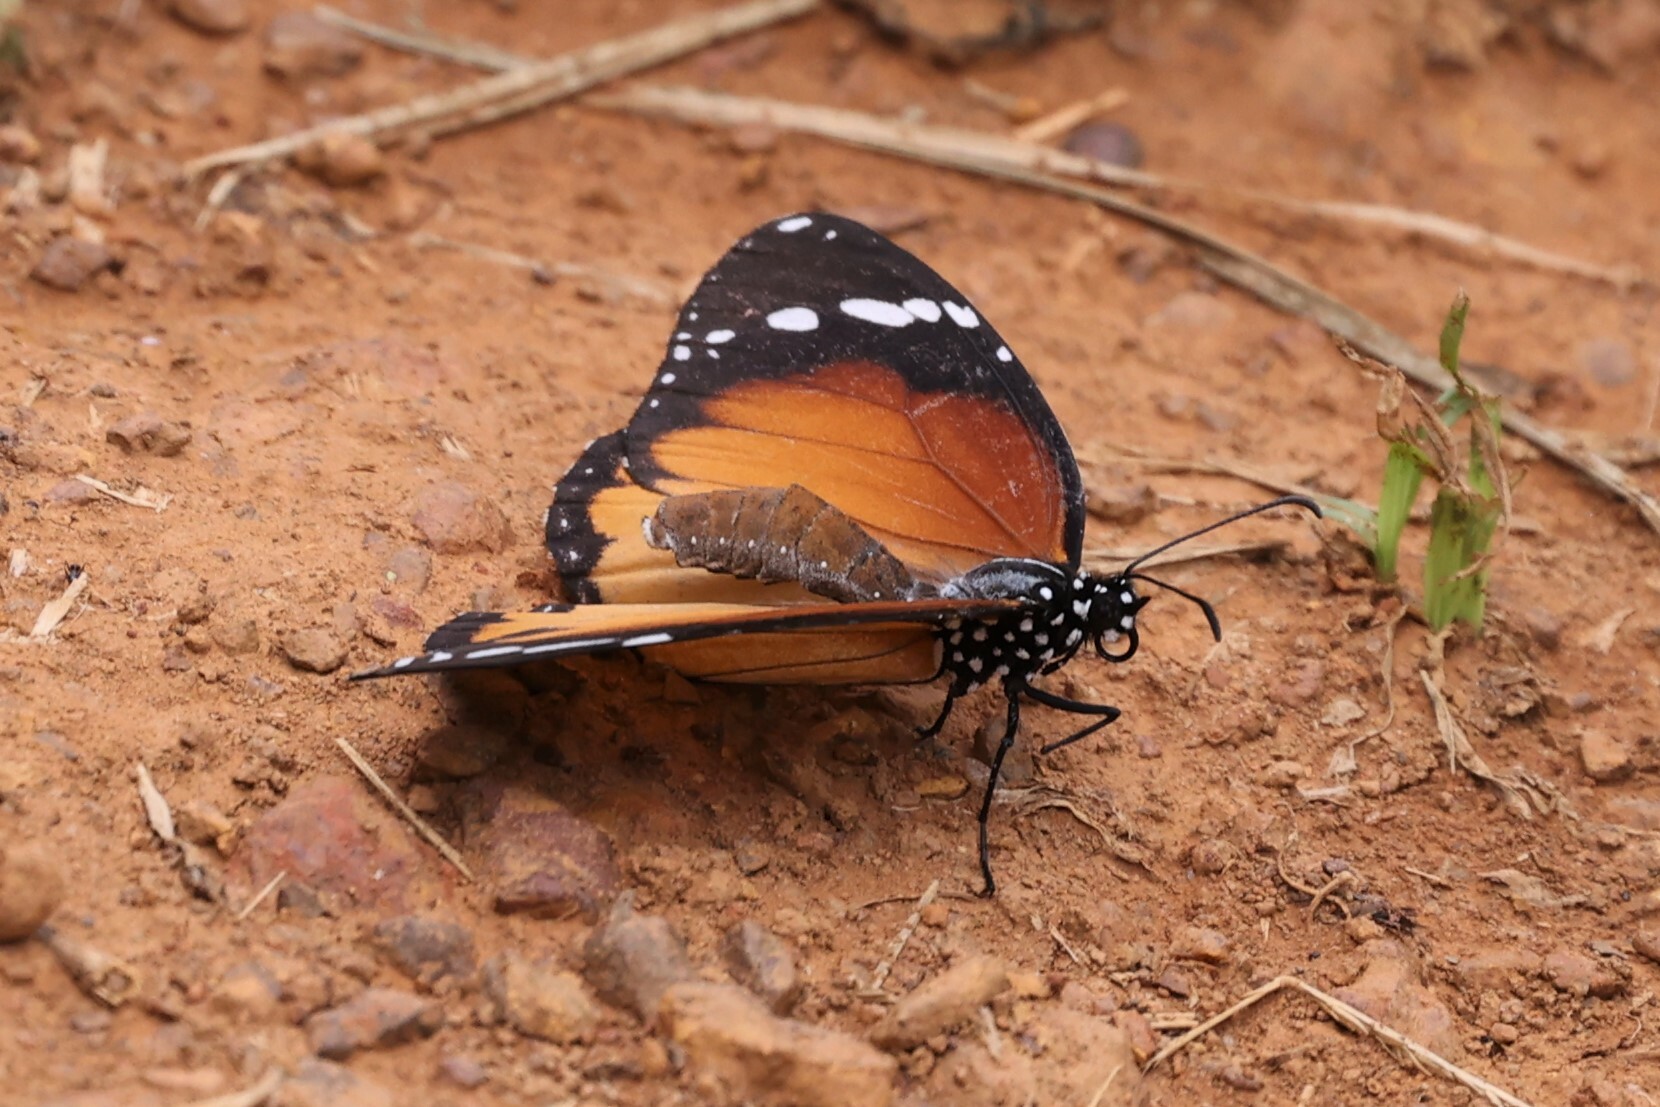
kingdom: Animalia
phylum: Arthropoda
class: Insecta
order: Lepidoptera
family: Nymphalidae
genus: Danaus
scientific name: Danaus chrysippus
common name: Plain tiger
